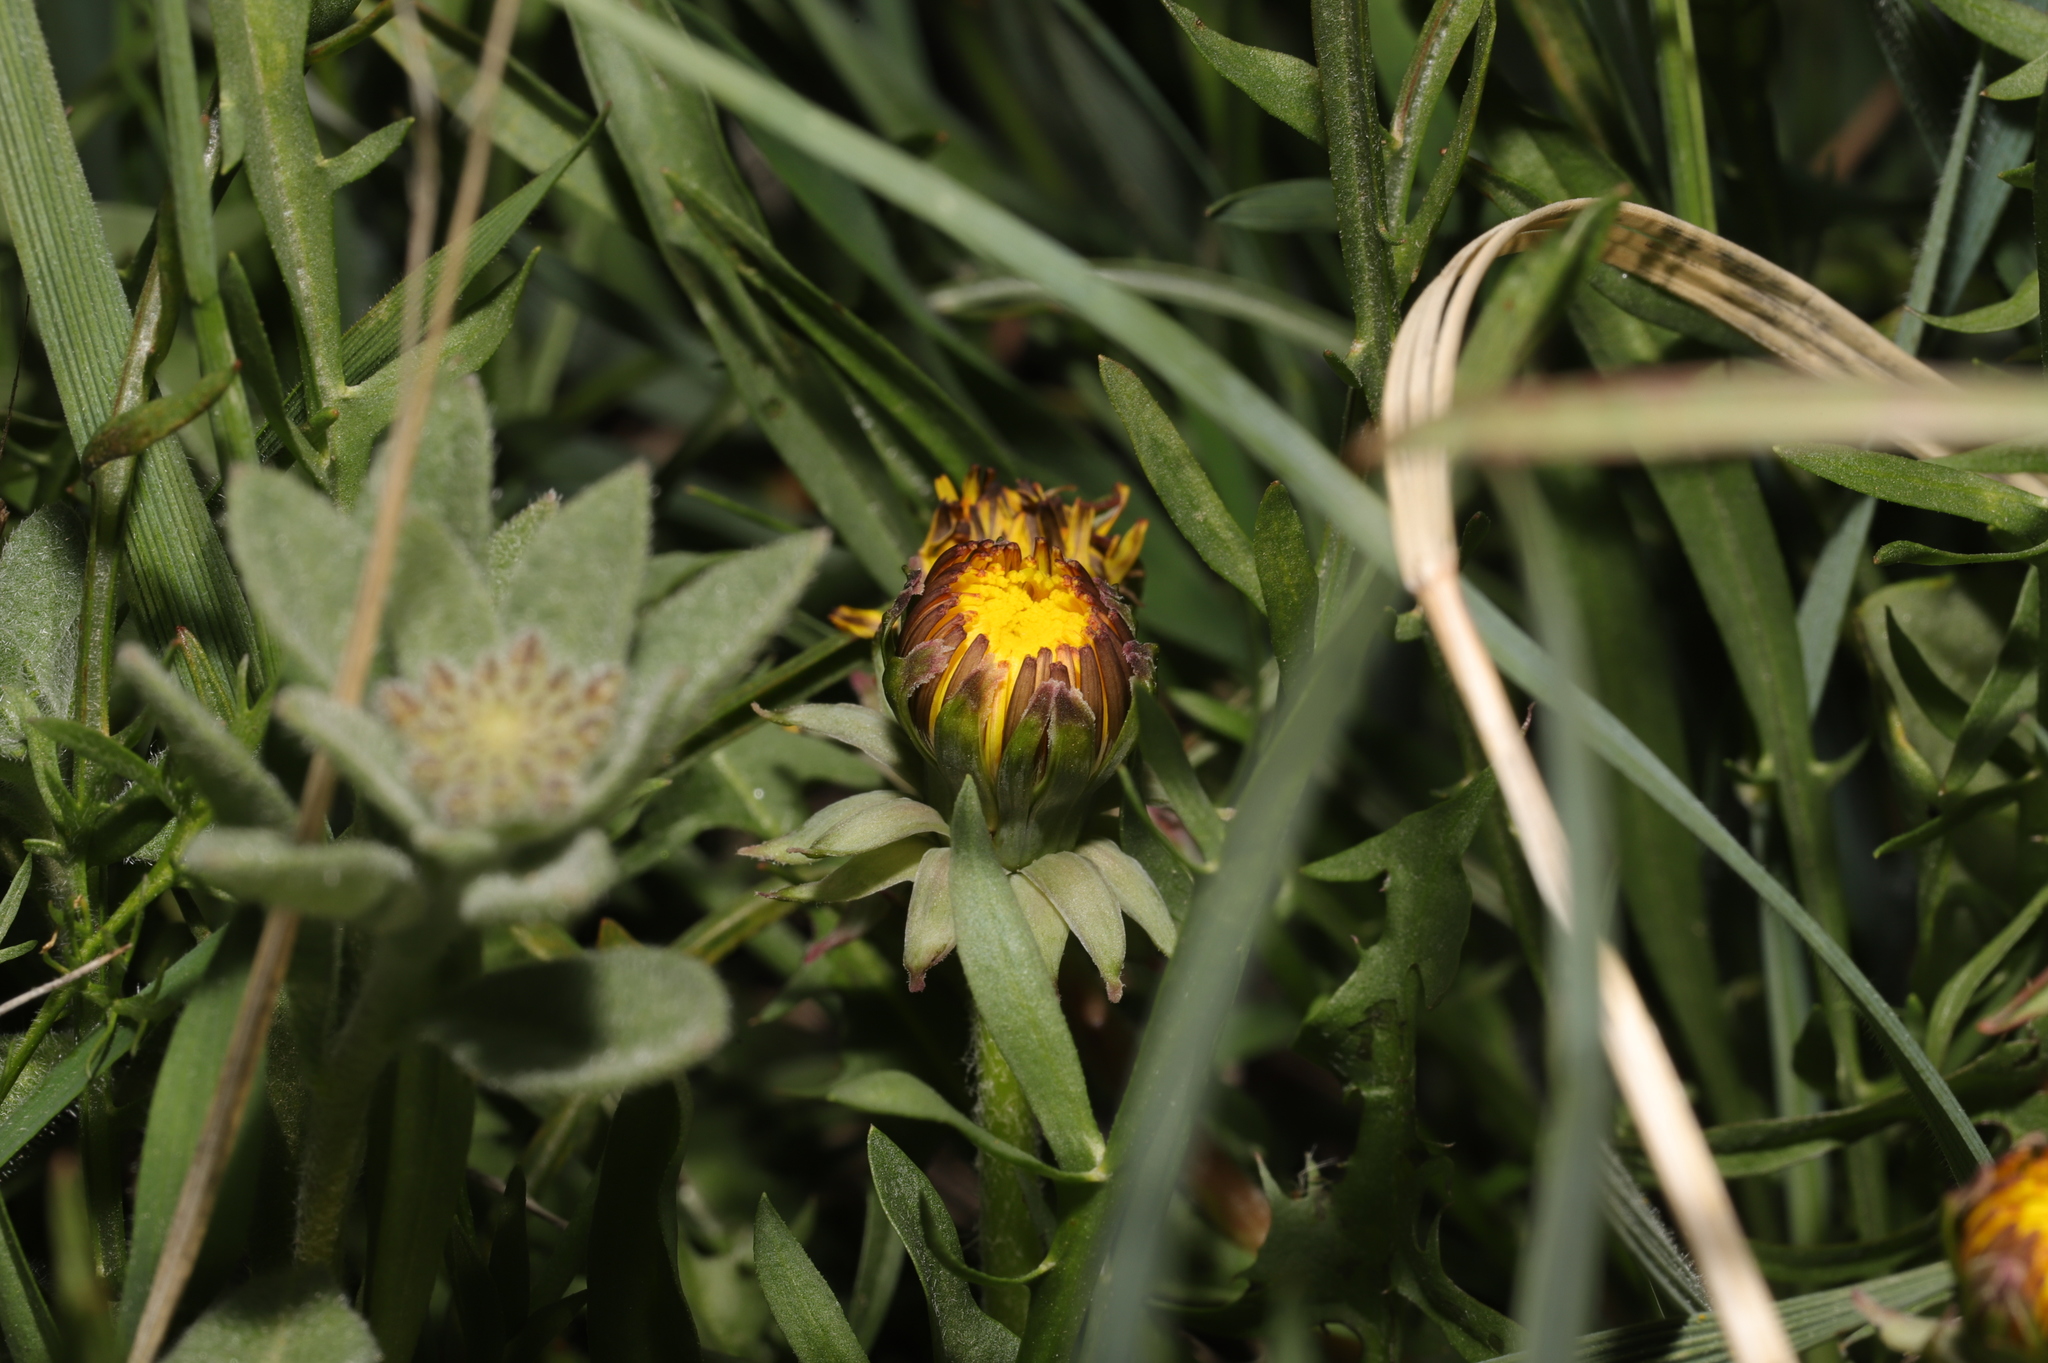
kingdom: Plantae
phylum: Tracheophyta
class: Magnoliopsida
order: Asterales
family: Asteraceae
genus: Taraxacum
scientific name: Taraxacum officinale
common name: Common dandelion
